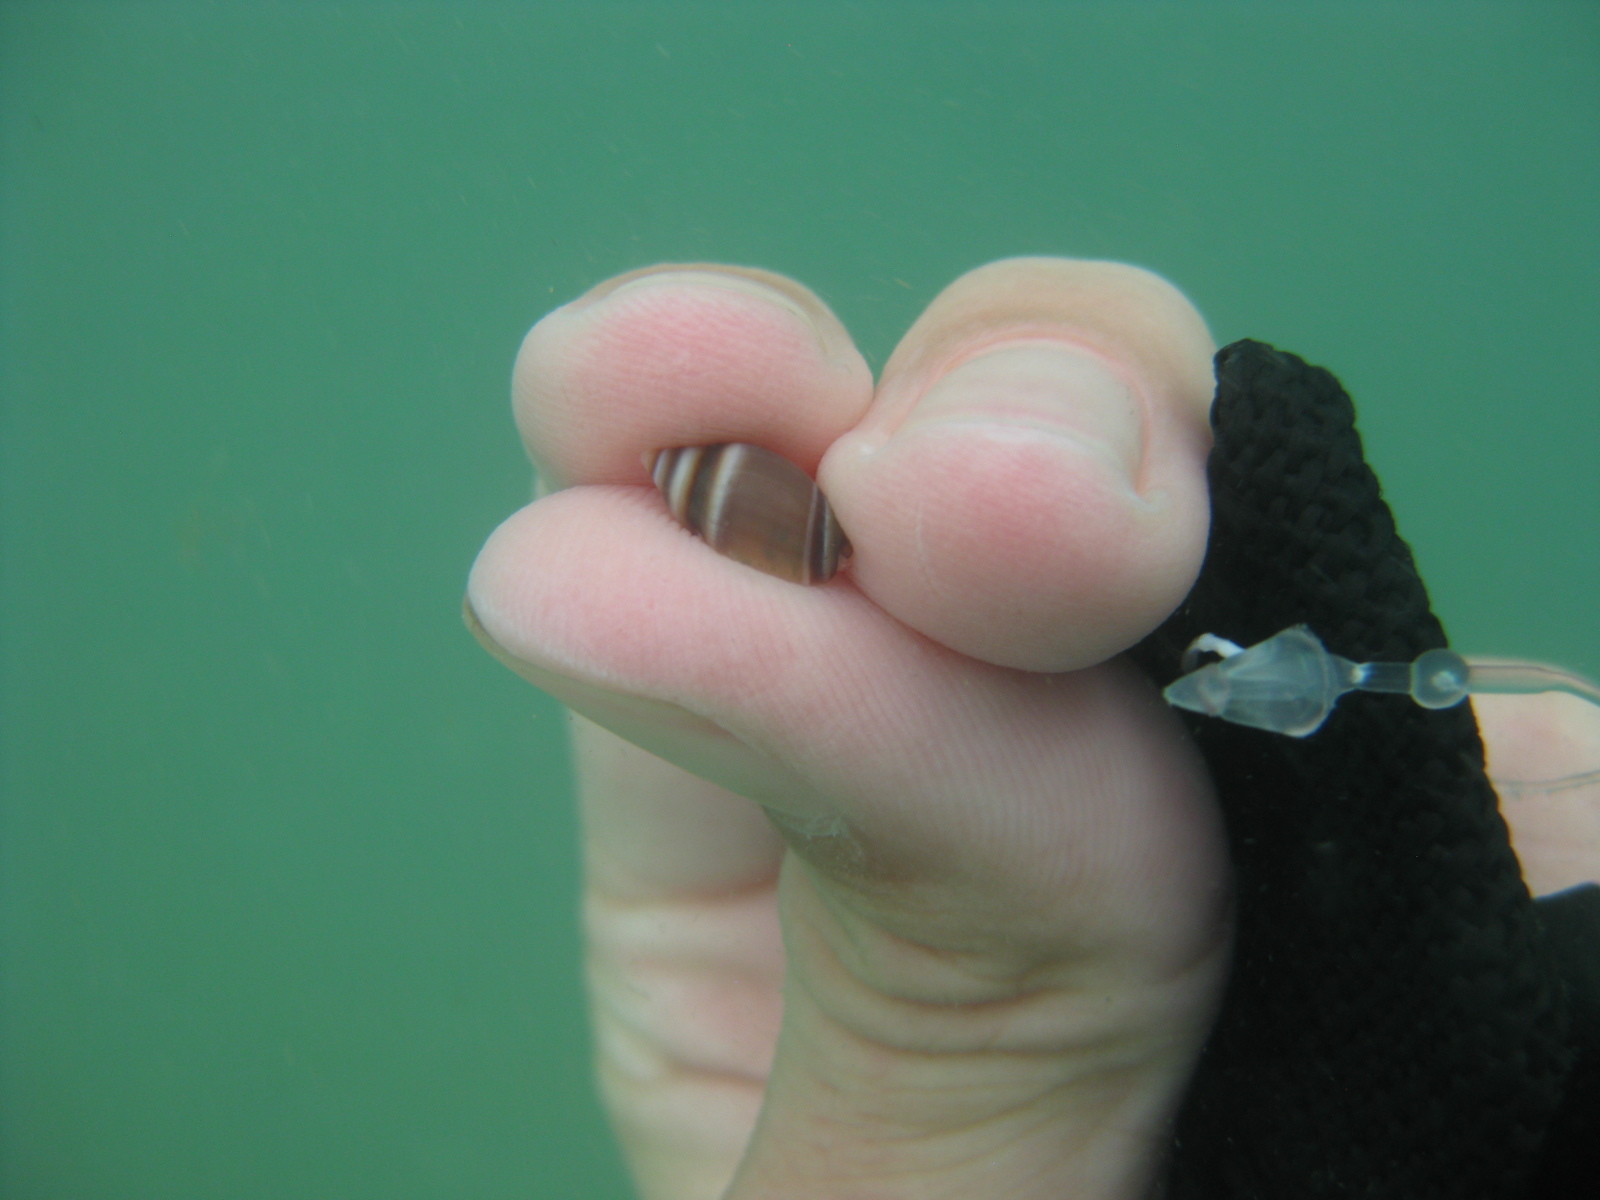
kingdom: Animalia
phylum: Mollusca
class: Gastropoda
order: Neogastropoda
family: Ancillariidae
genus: Amalda
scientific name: Amalda australis
